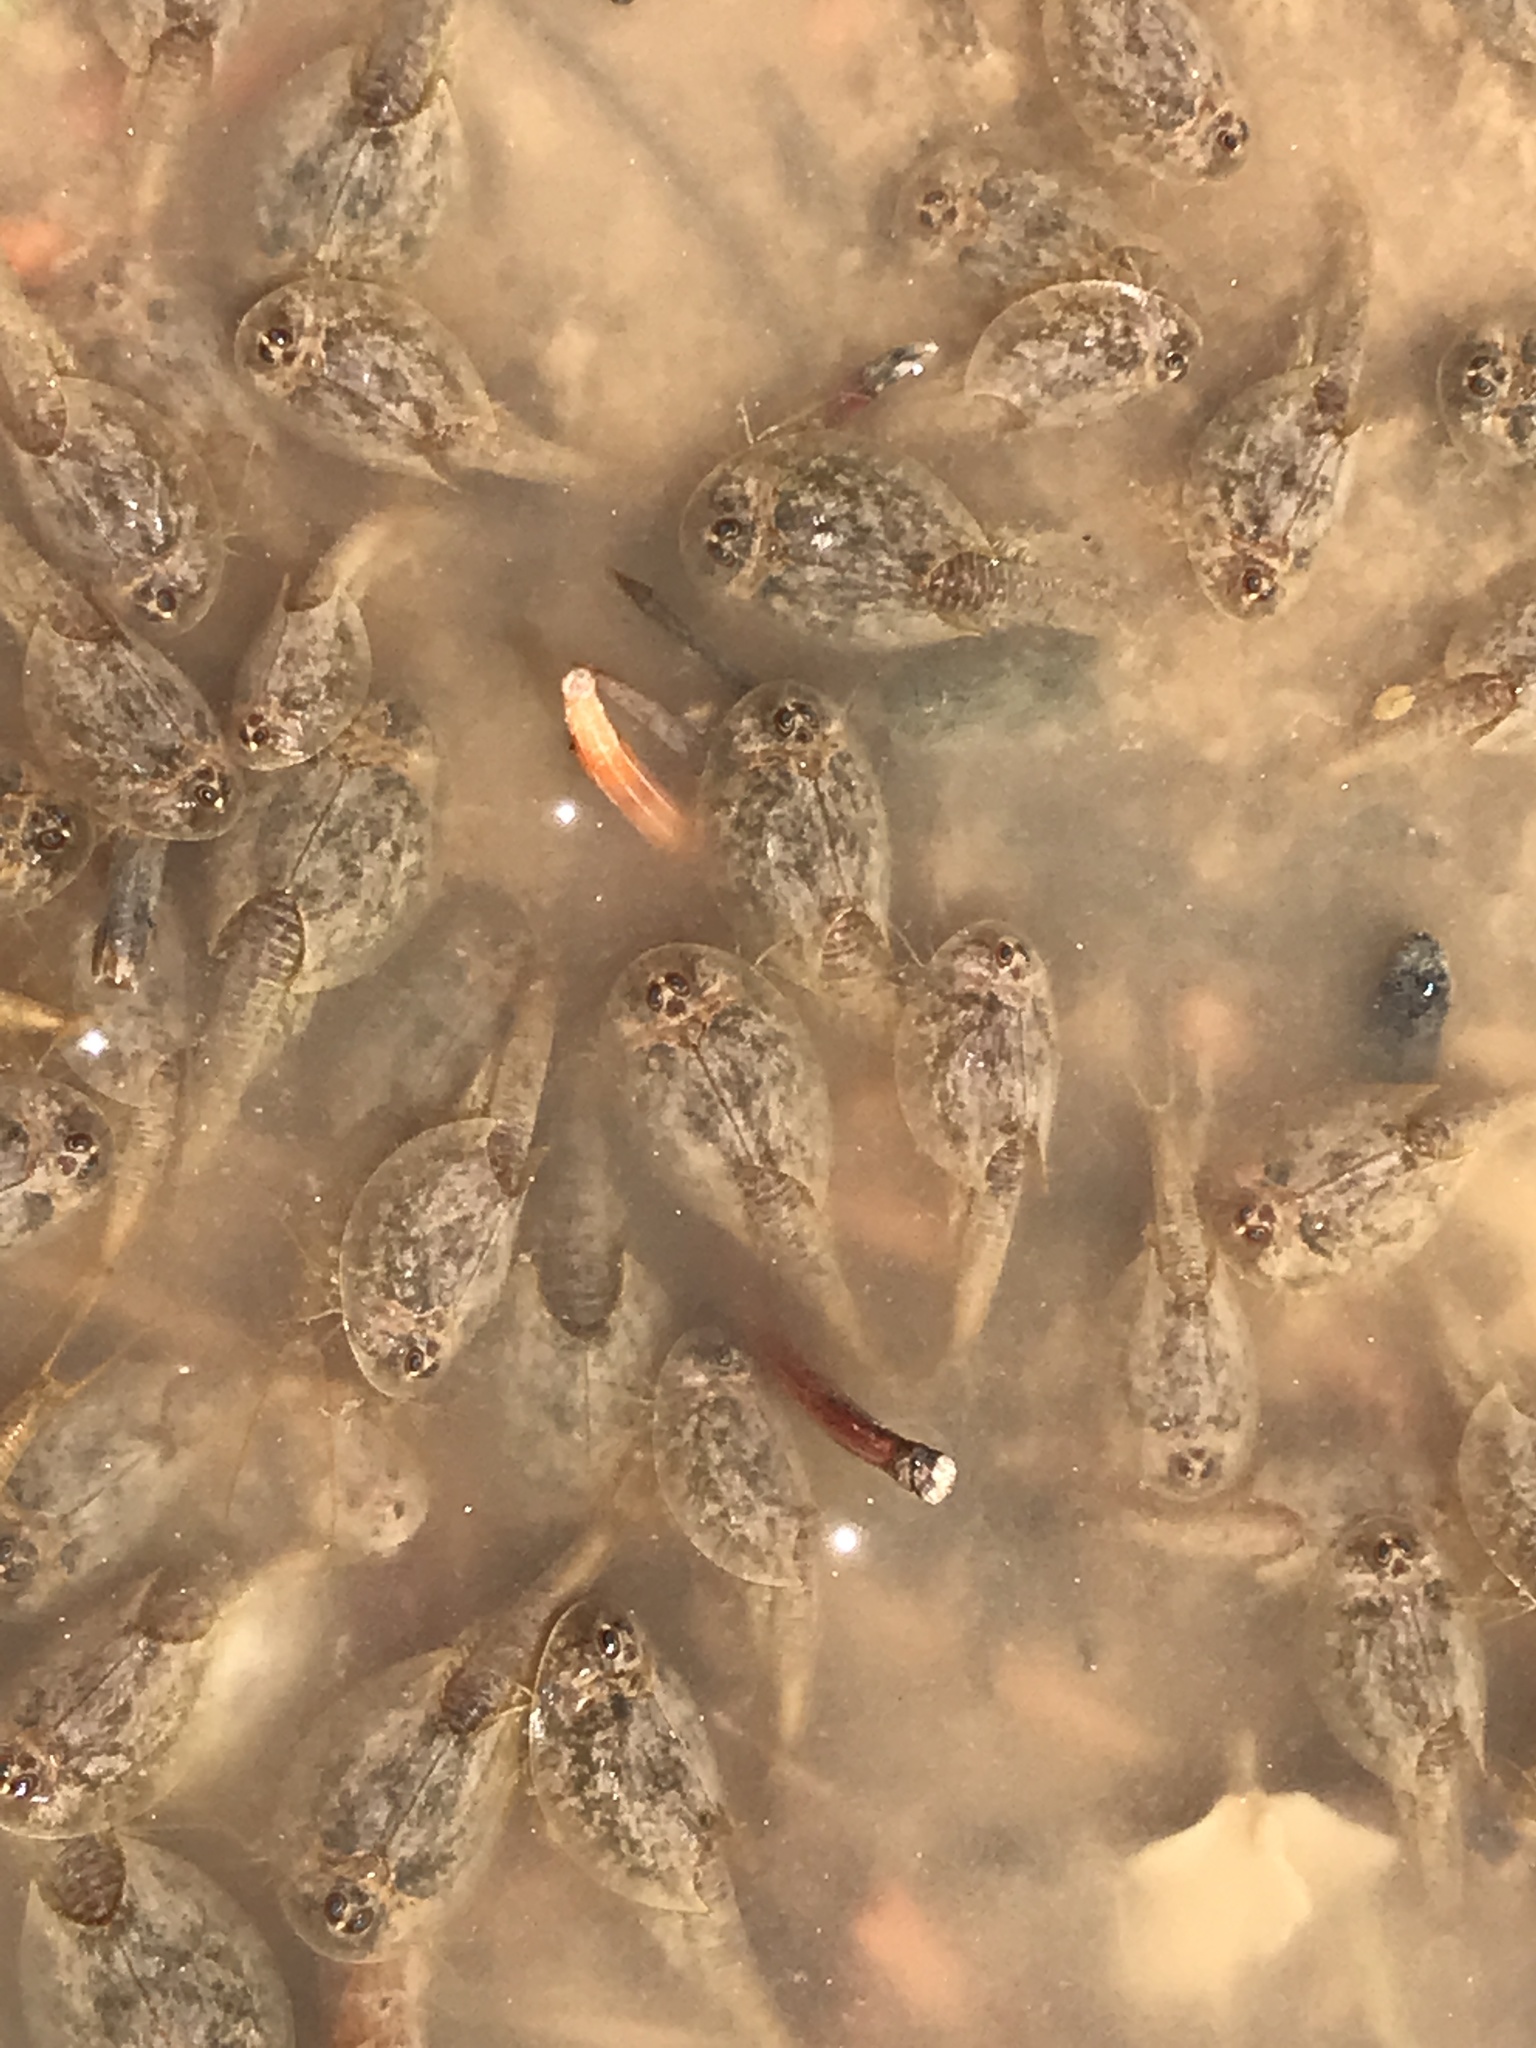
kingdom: Animalia
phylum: Arthropoda
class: Branchiopoda
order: Notostraca
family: Triopsidae
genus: Triops
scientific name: Triops
